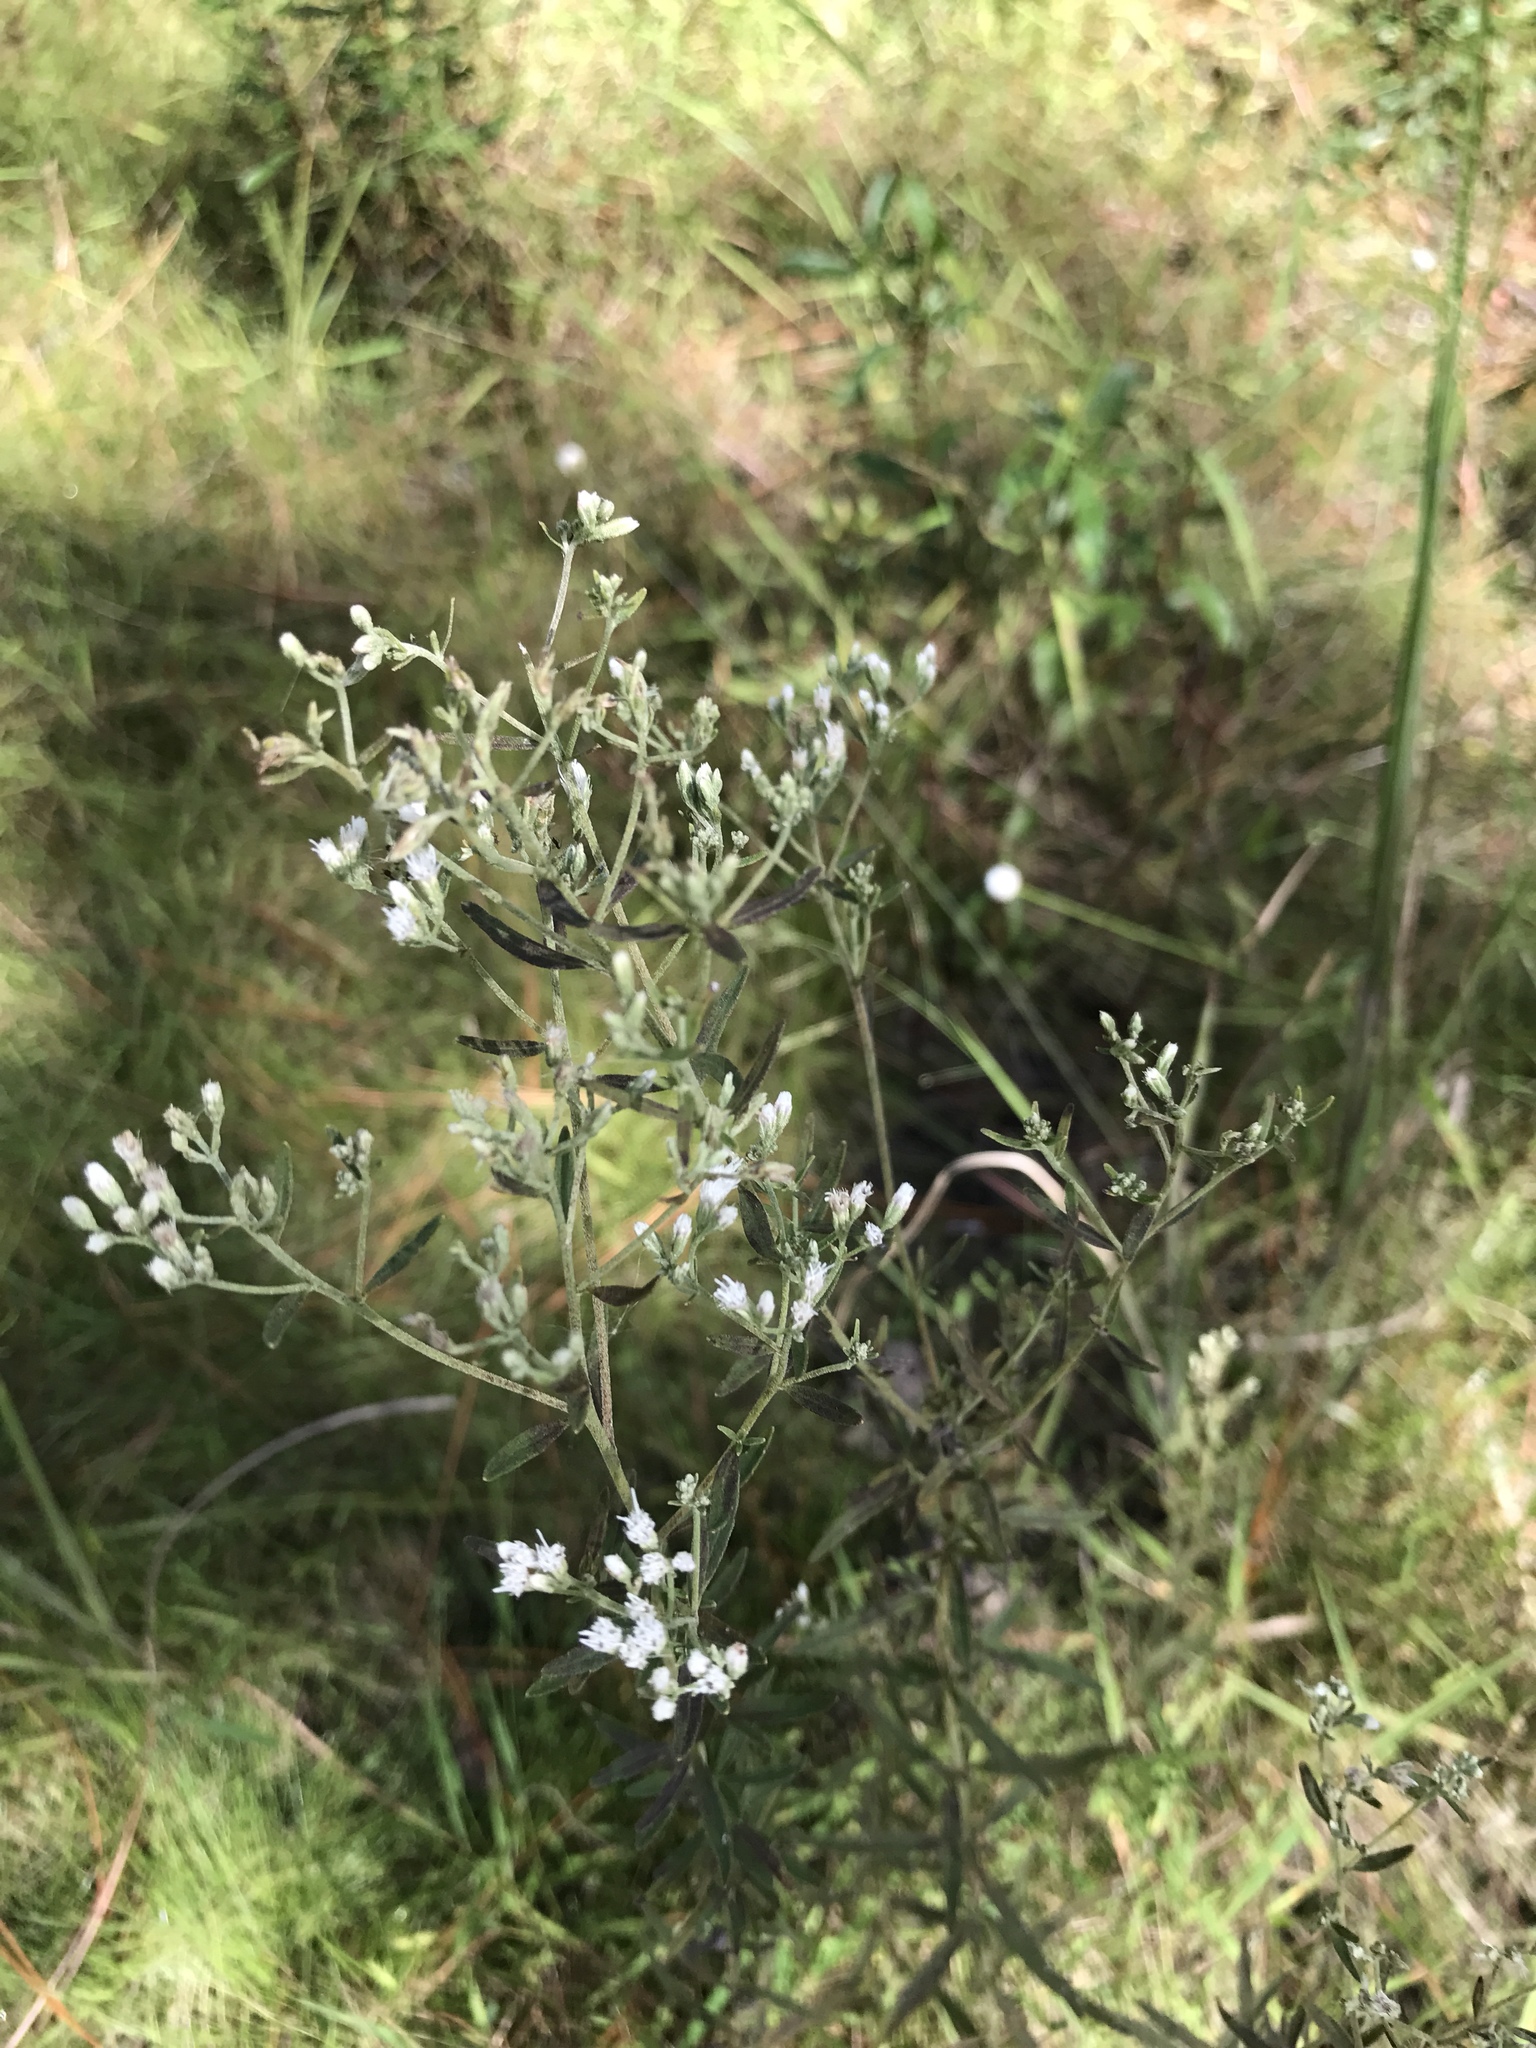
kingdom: Plantae
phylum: Tracheophyta
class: Magnoliopsida
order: Asterales
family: Asteraceae
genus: Eupatorium
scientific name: Eupatorium hyssopifolium
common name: Hyssop-leaf thoroughwort
